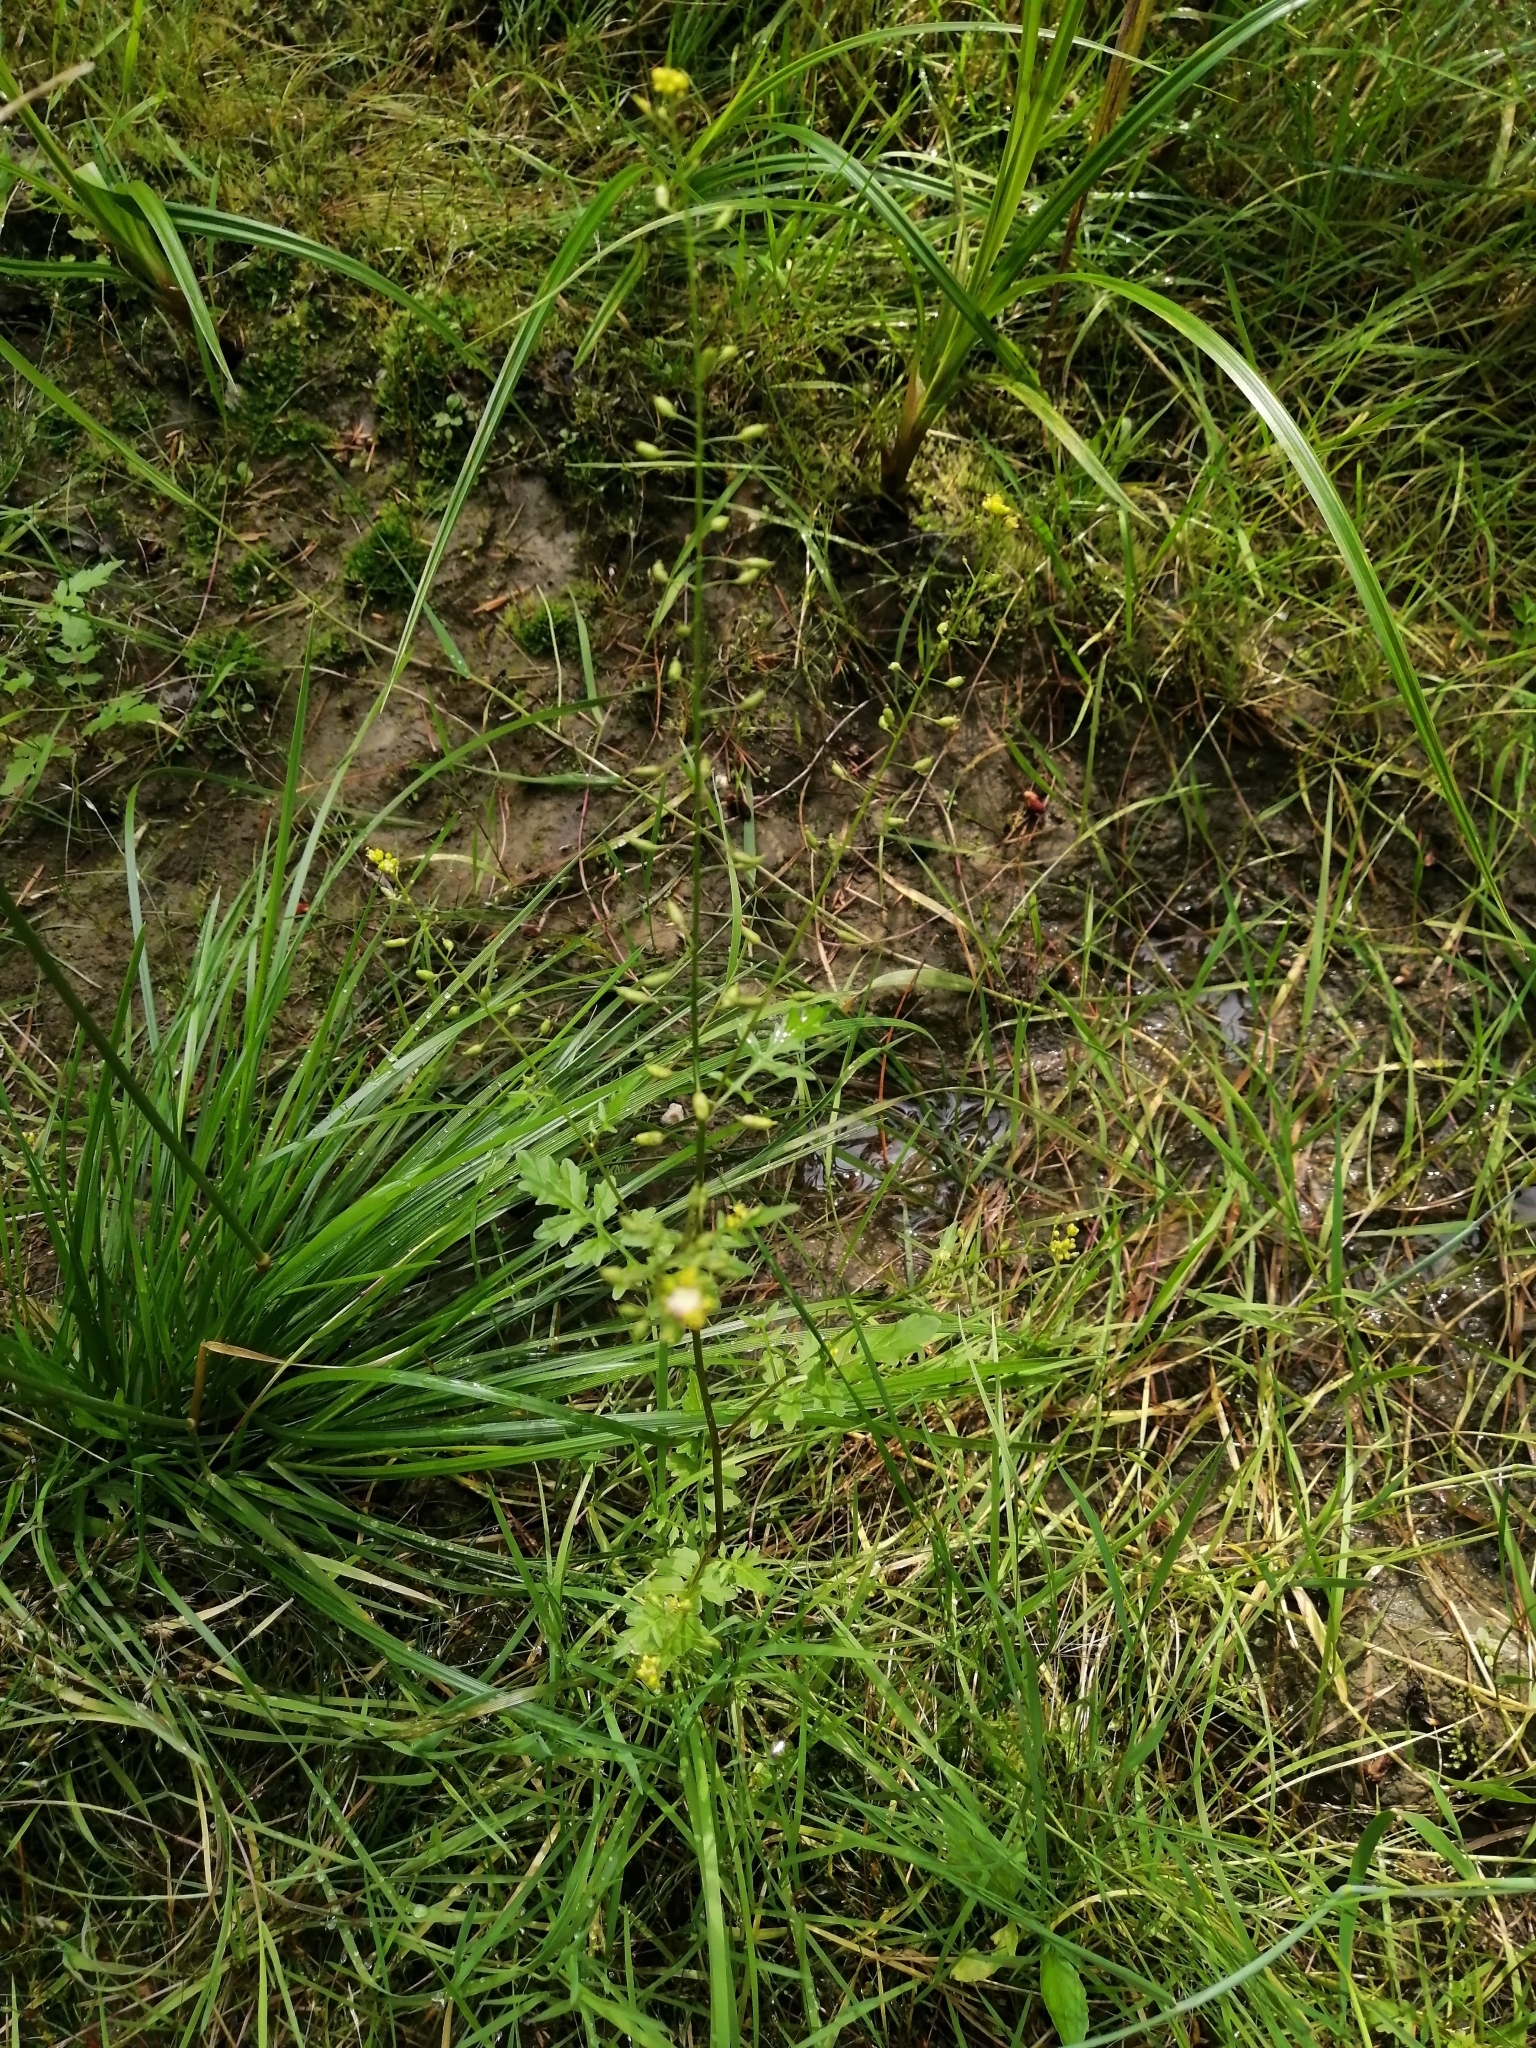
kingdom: Plantae
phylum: Tracheophyta
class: Magnoliopsida
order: Brassicales
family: Brassicaceae
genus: Rorippa
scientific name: Rorippa palustris
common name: Marsh yellow-cress
